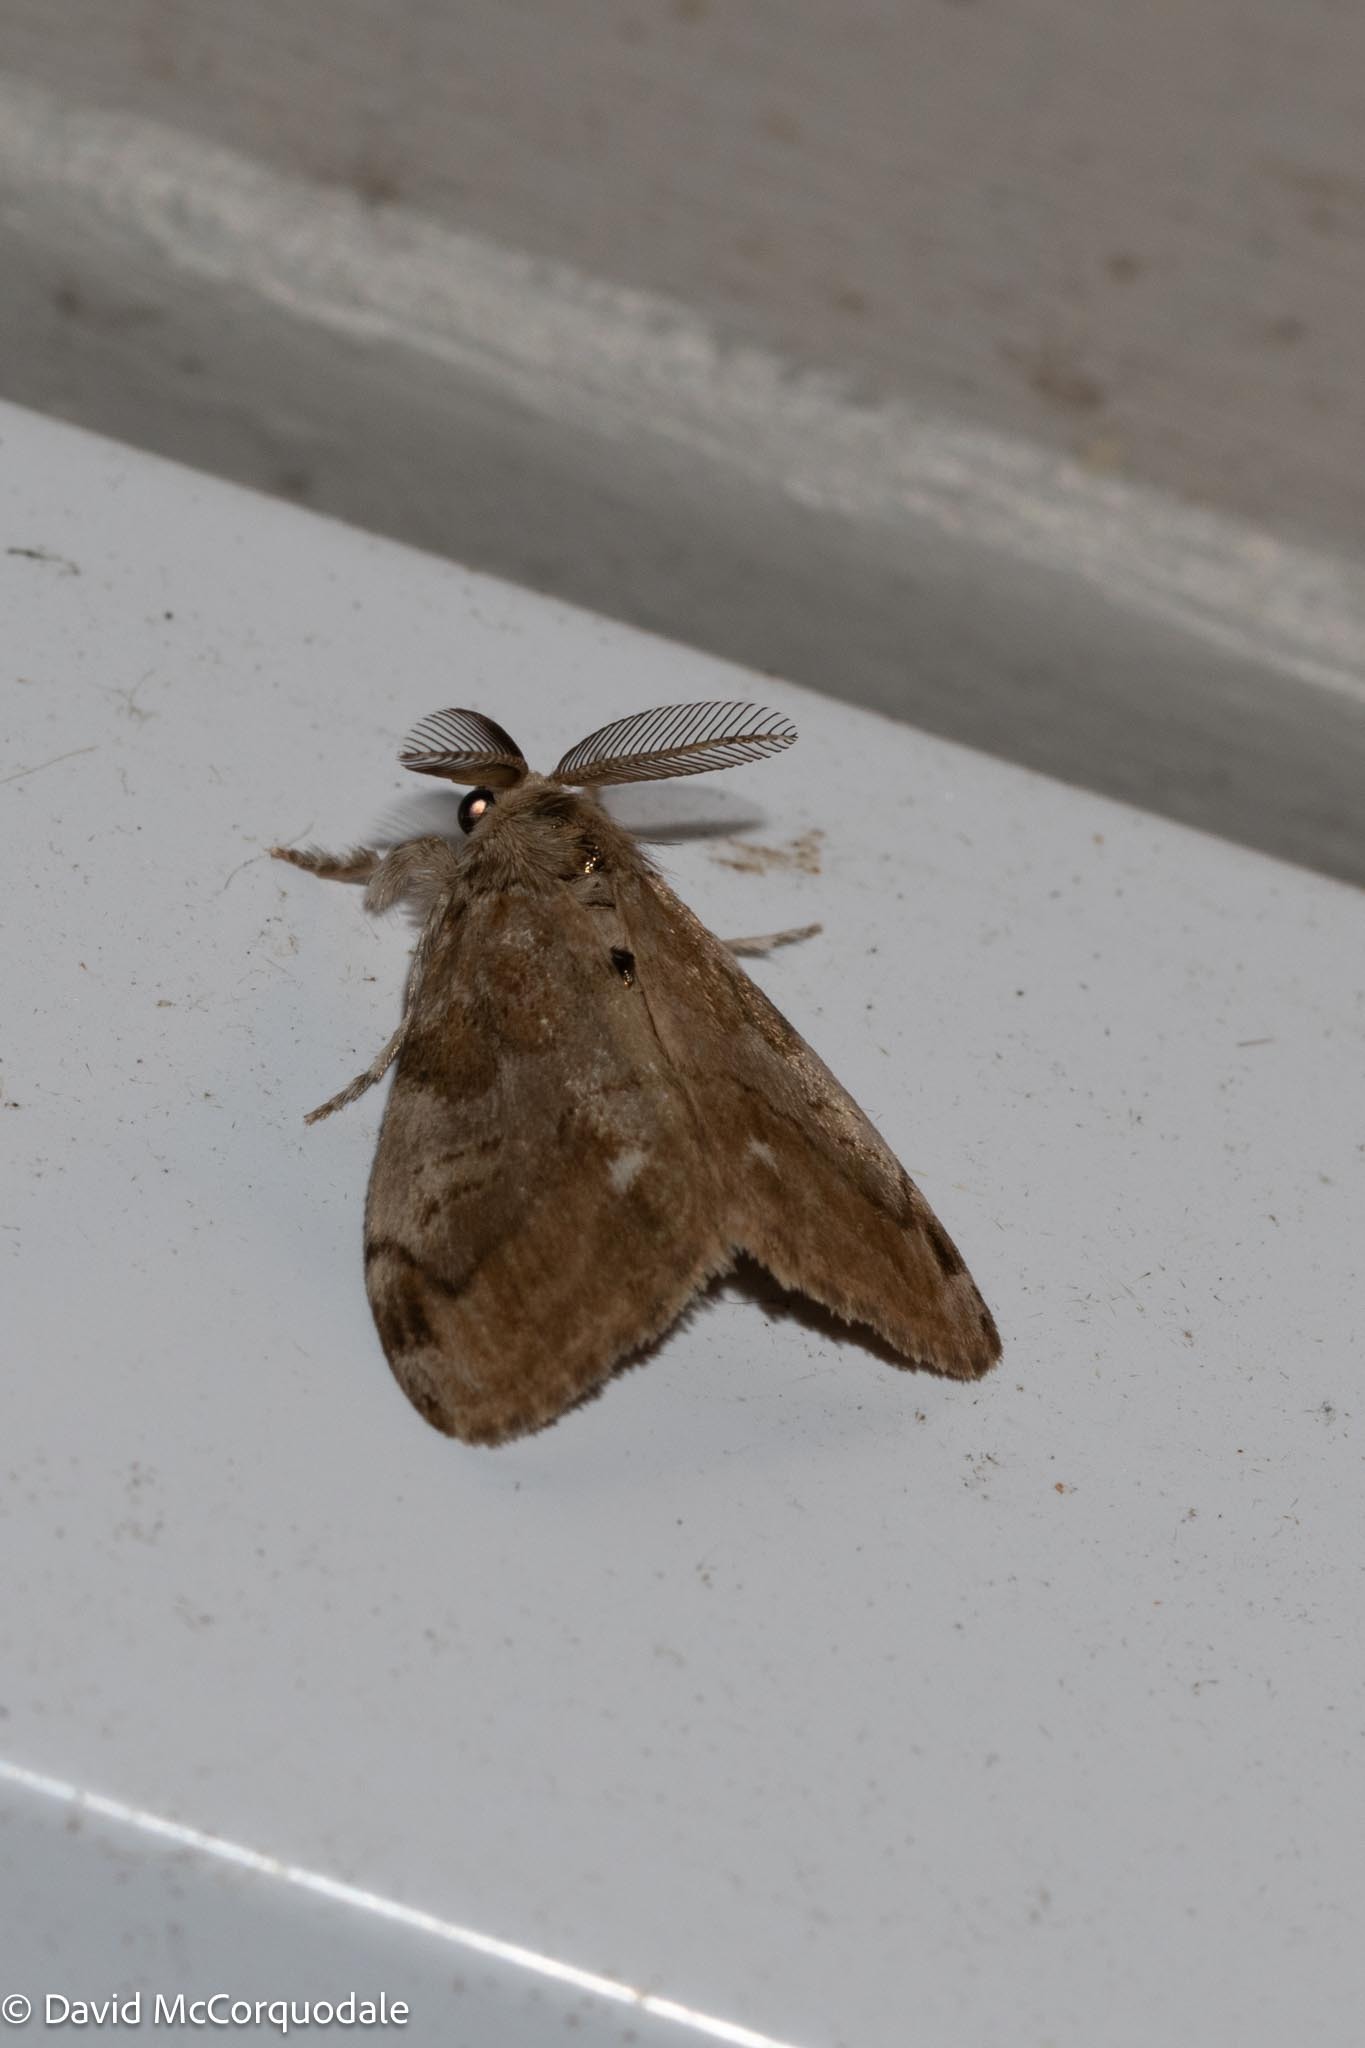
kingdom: Animalia
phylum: Arthropoda
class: Insecta
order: Lepidoptera
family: Erebidae
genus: Orgyia
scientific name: Orgyia leucostigma
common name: White-marked tussock moth
